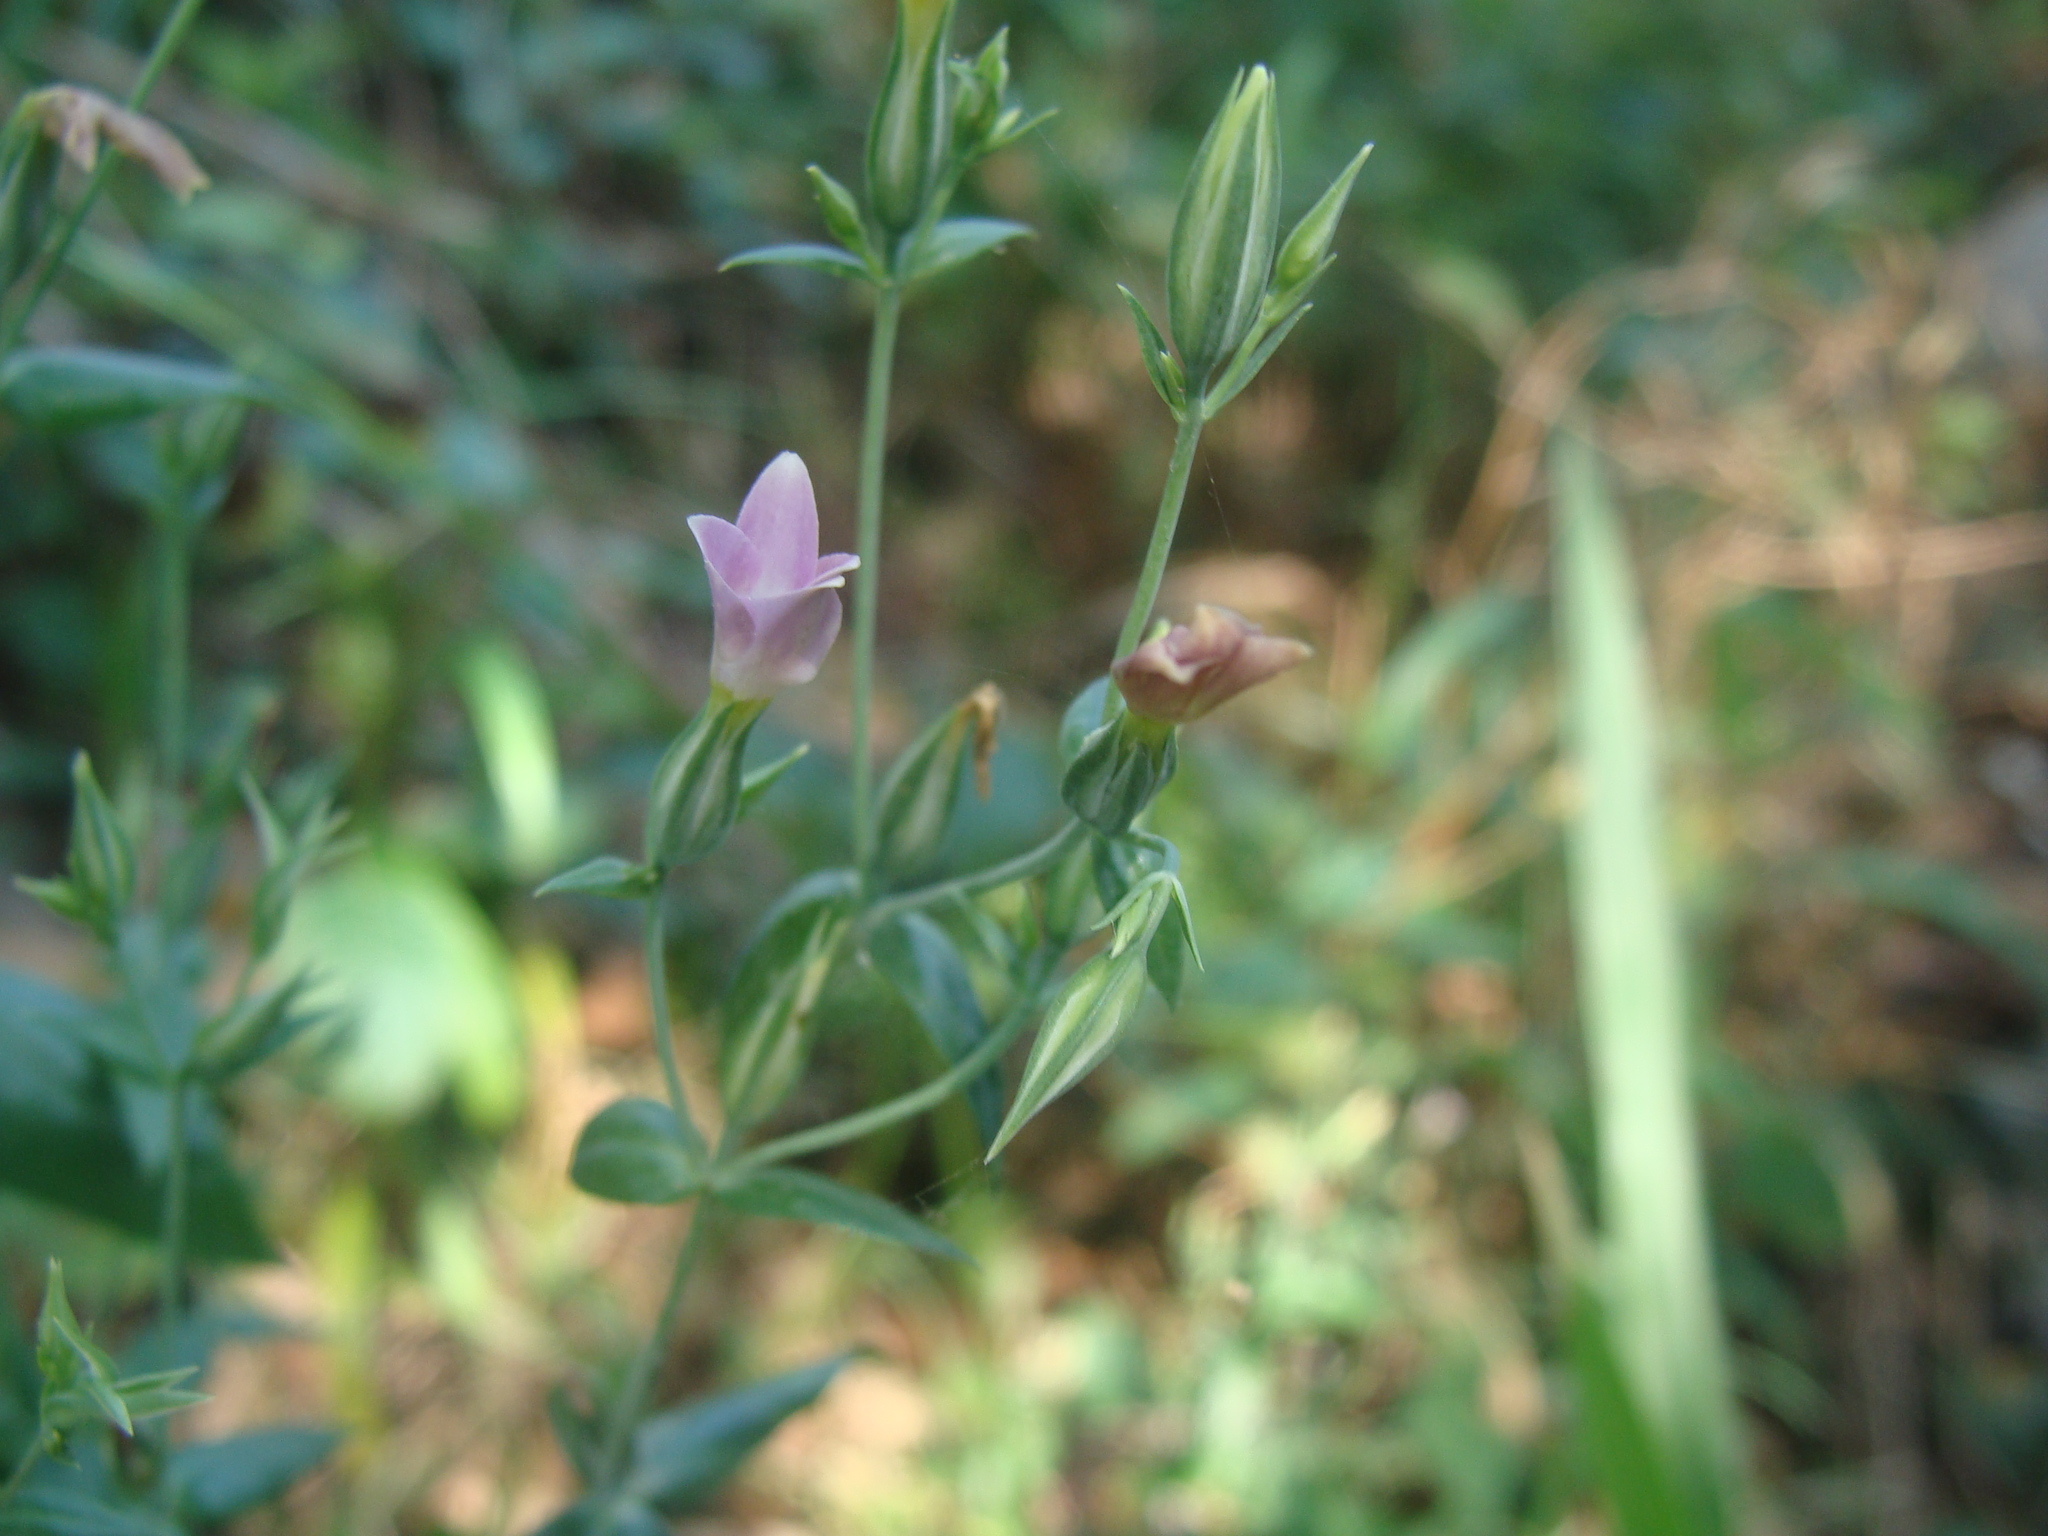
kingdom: Plantae
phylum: Tracheophyta
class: Magnoliopsida
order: Gentianales
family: Gentianaceae
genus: Schultesia
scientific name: Schultesia lisianthoides
